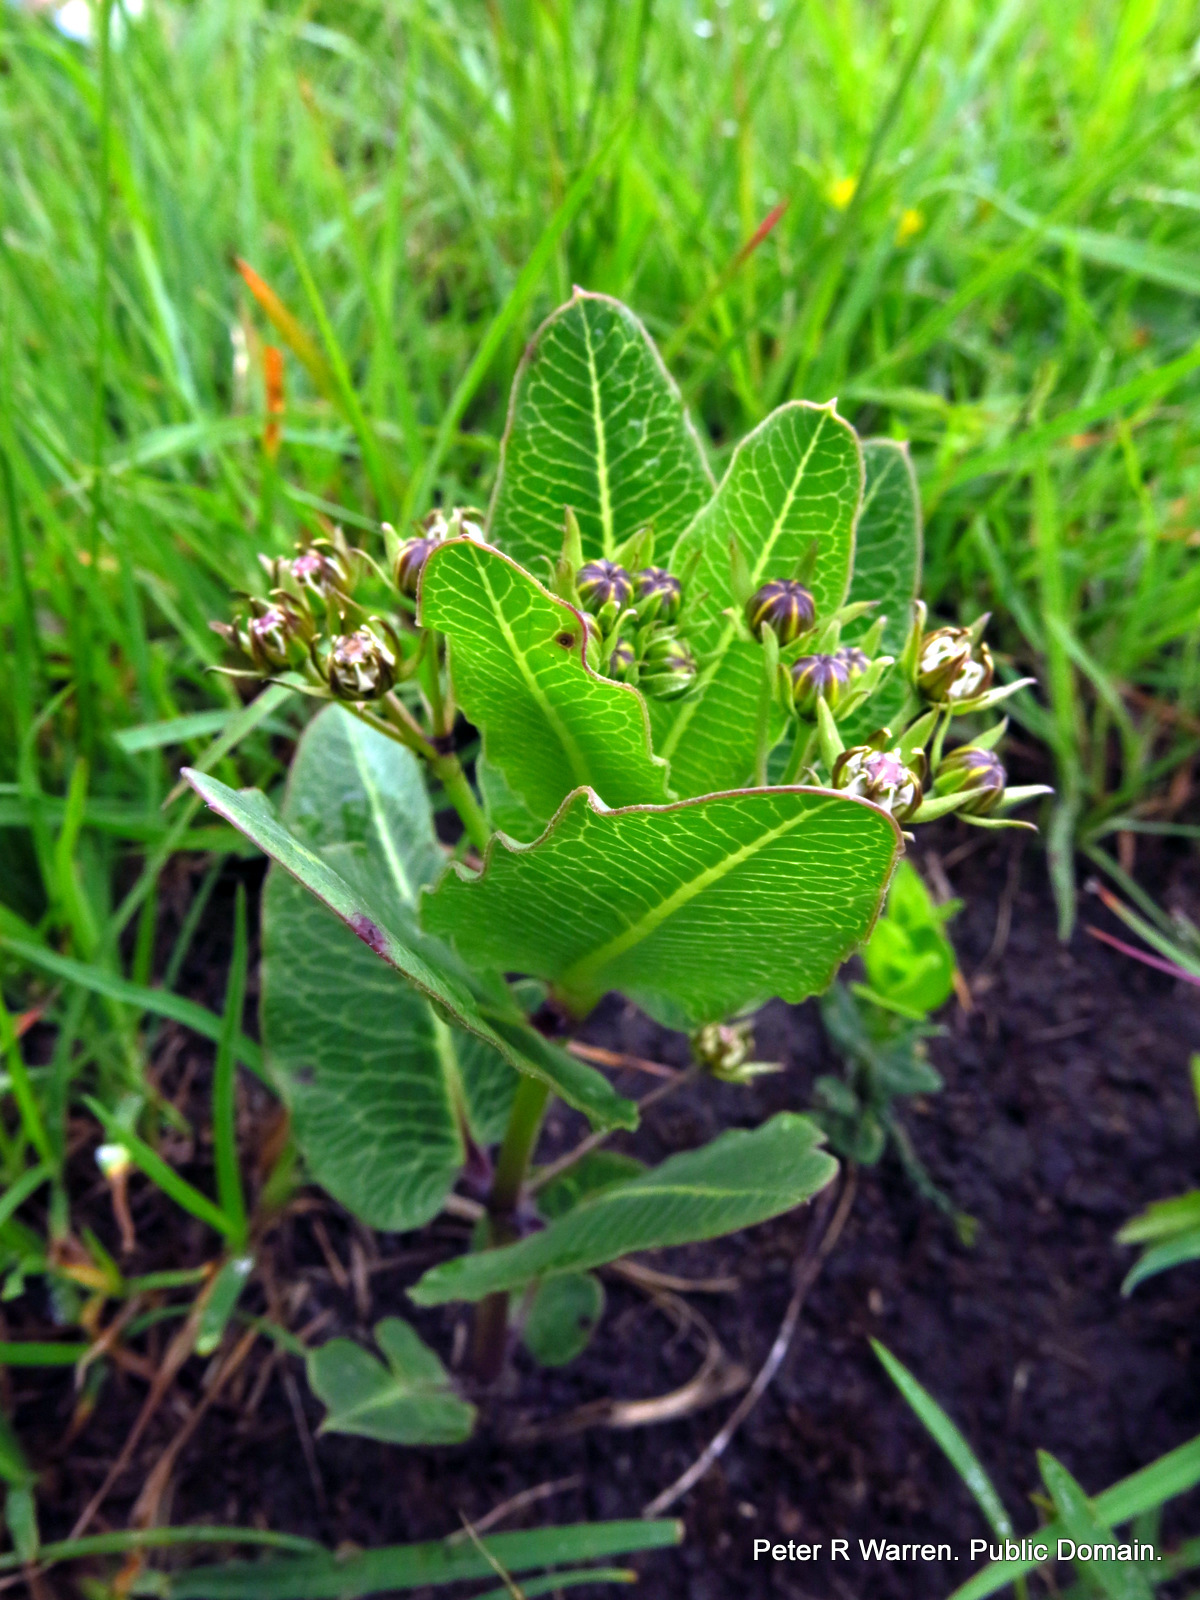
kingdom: Plantae
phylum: Tracheophyta
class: Magnoliopsida
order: Gentianales
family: Apocynaceae
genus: Woodia
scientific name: Woodia verruculosa
